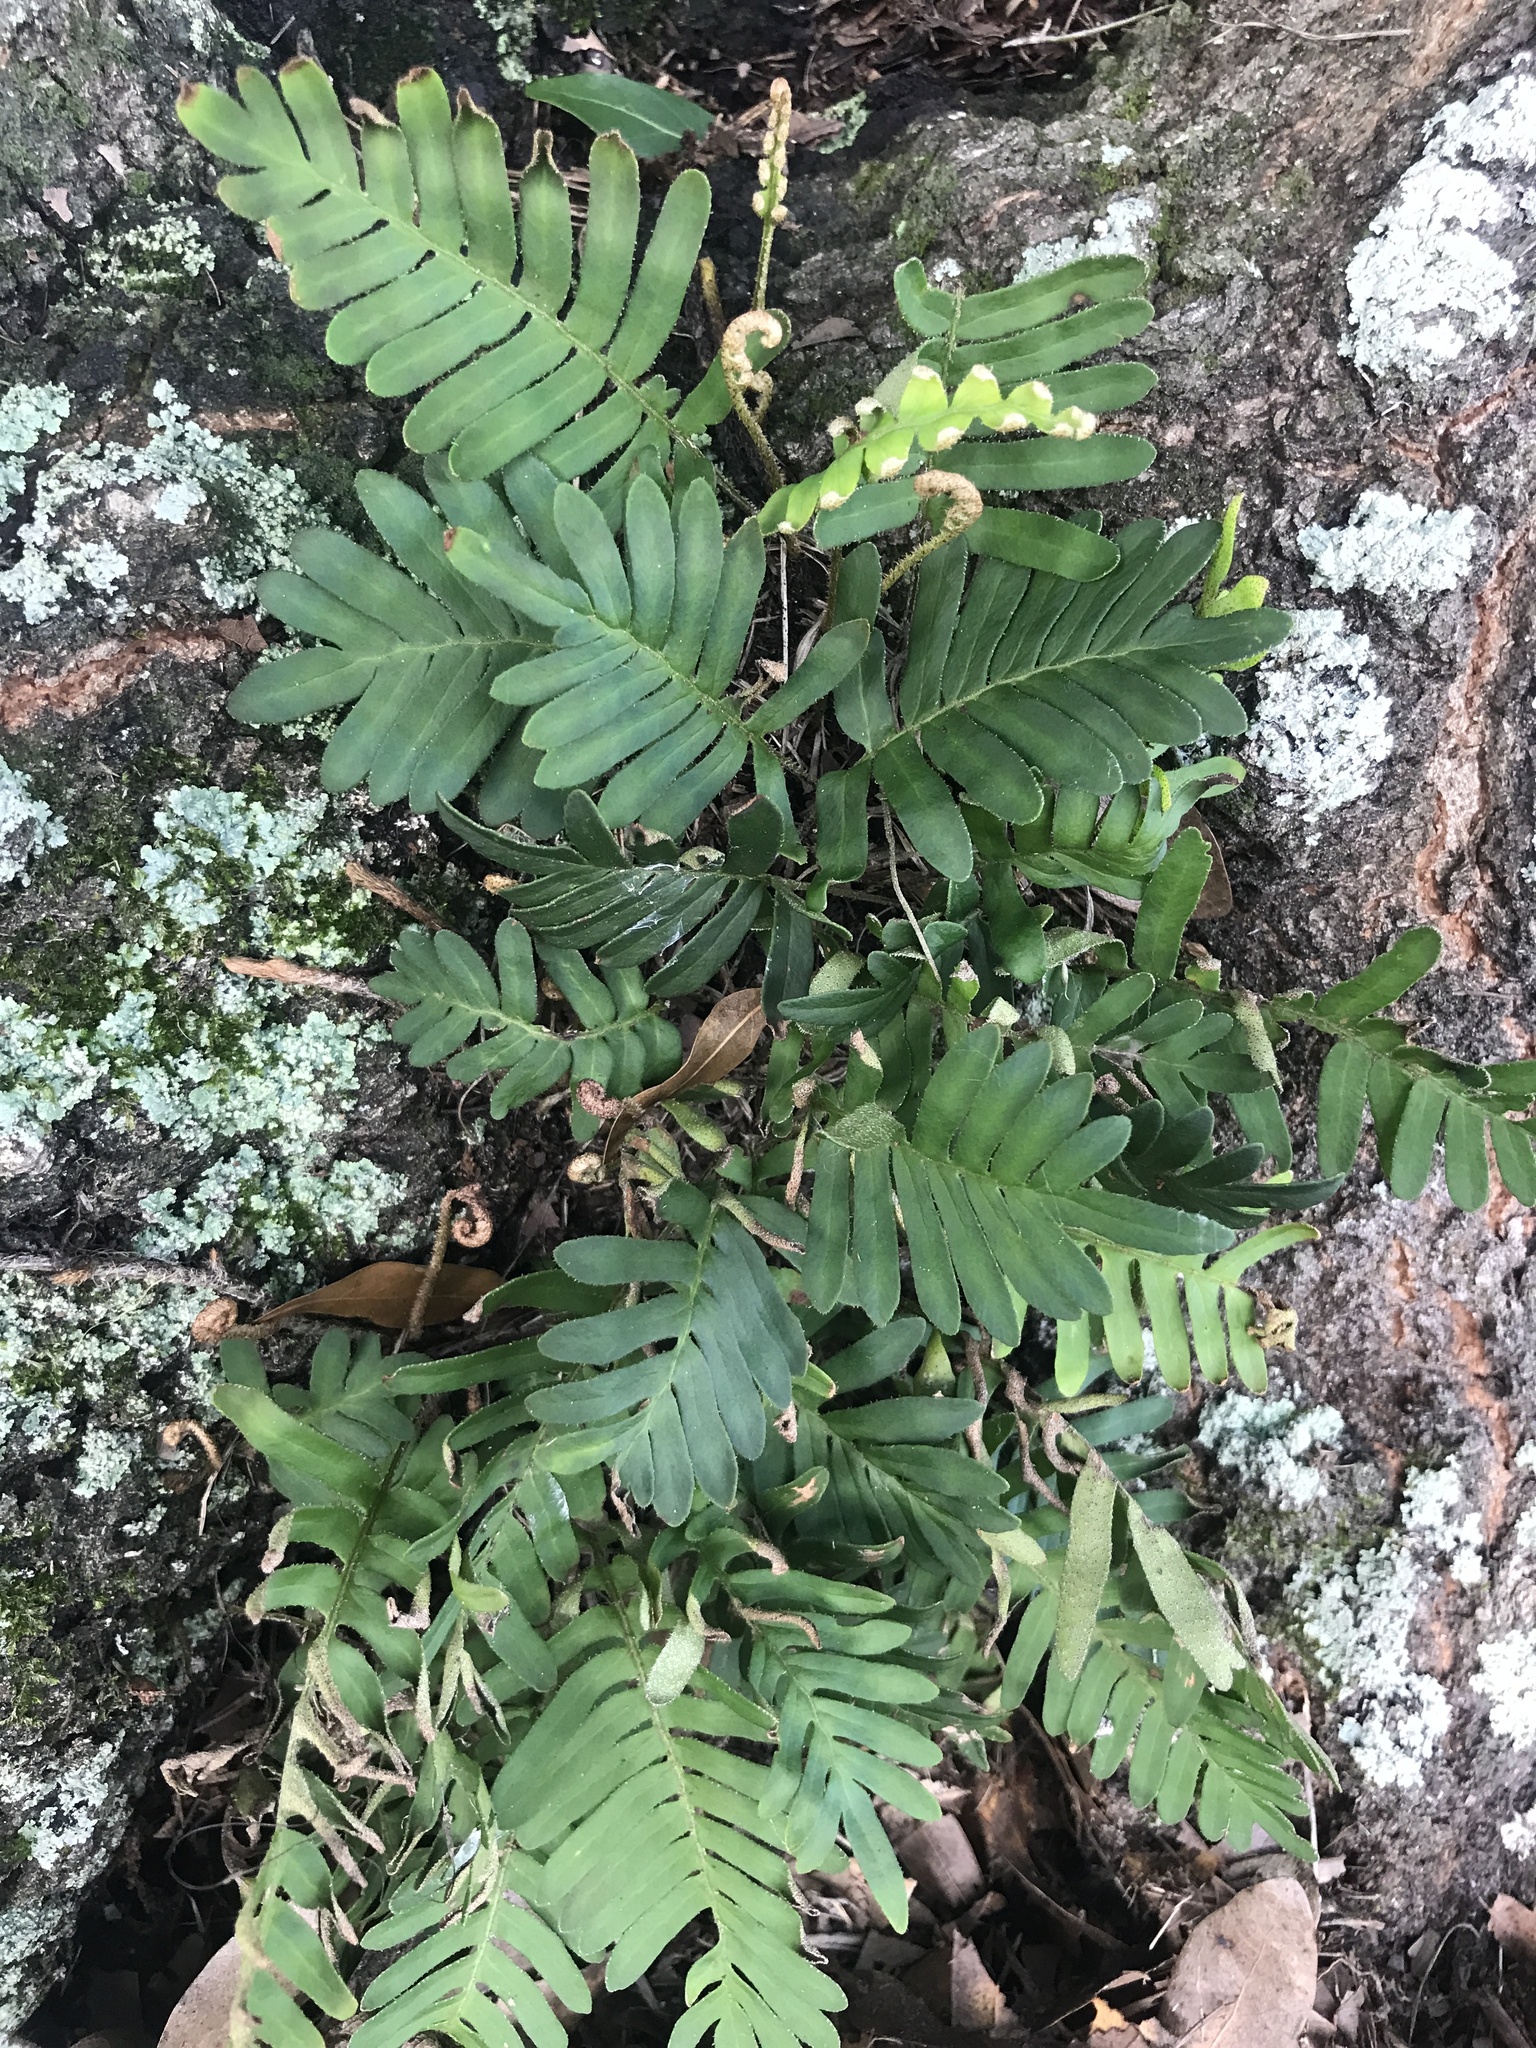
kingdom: Plantae
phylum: Tracheophyta
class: Polypodiopsida
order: Polypodiales
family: Polypodiaceae
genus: Pleopeltis
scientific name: Pleopeltis michauxiana
